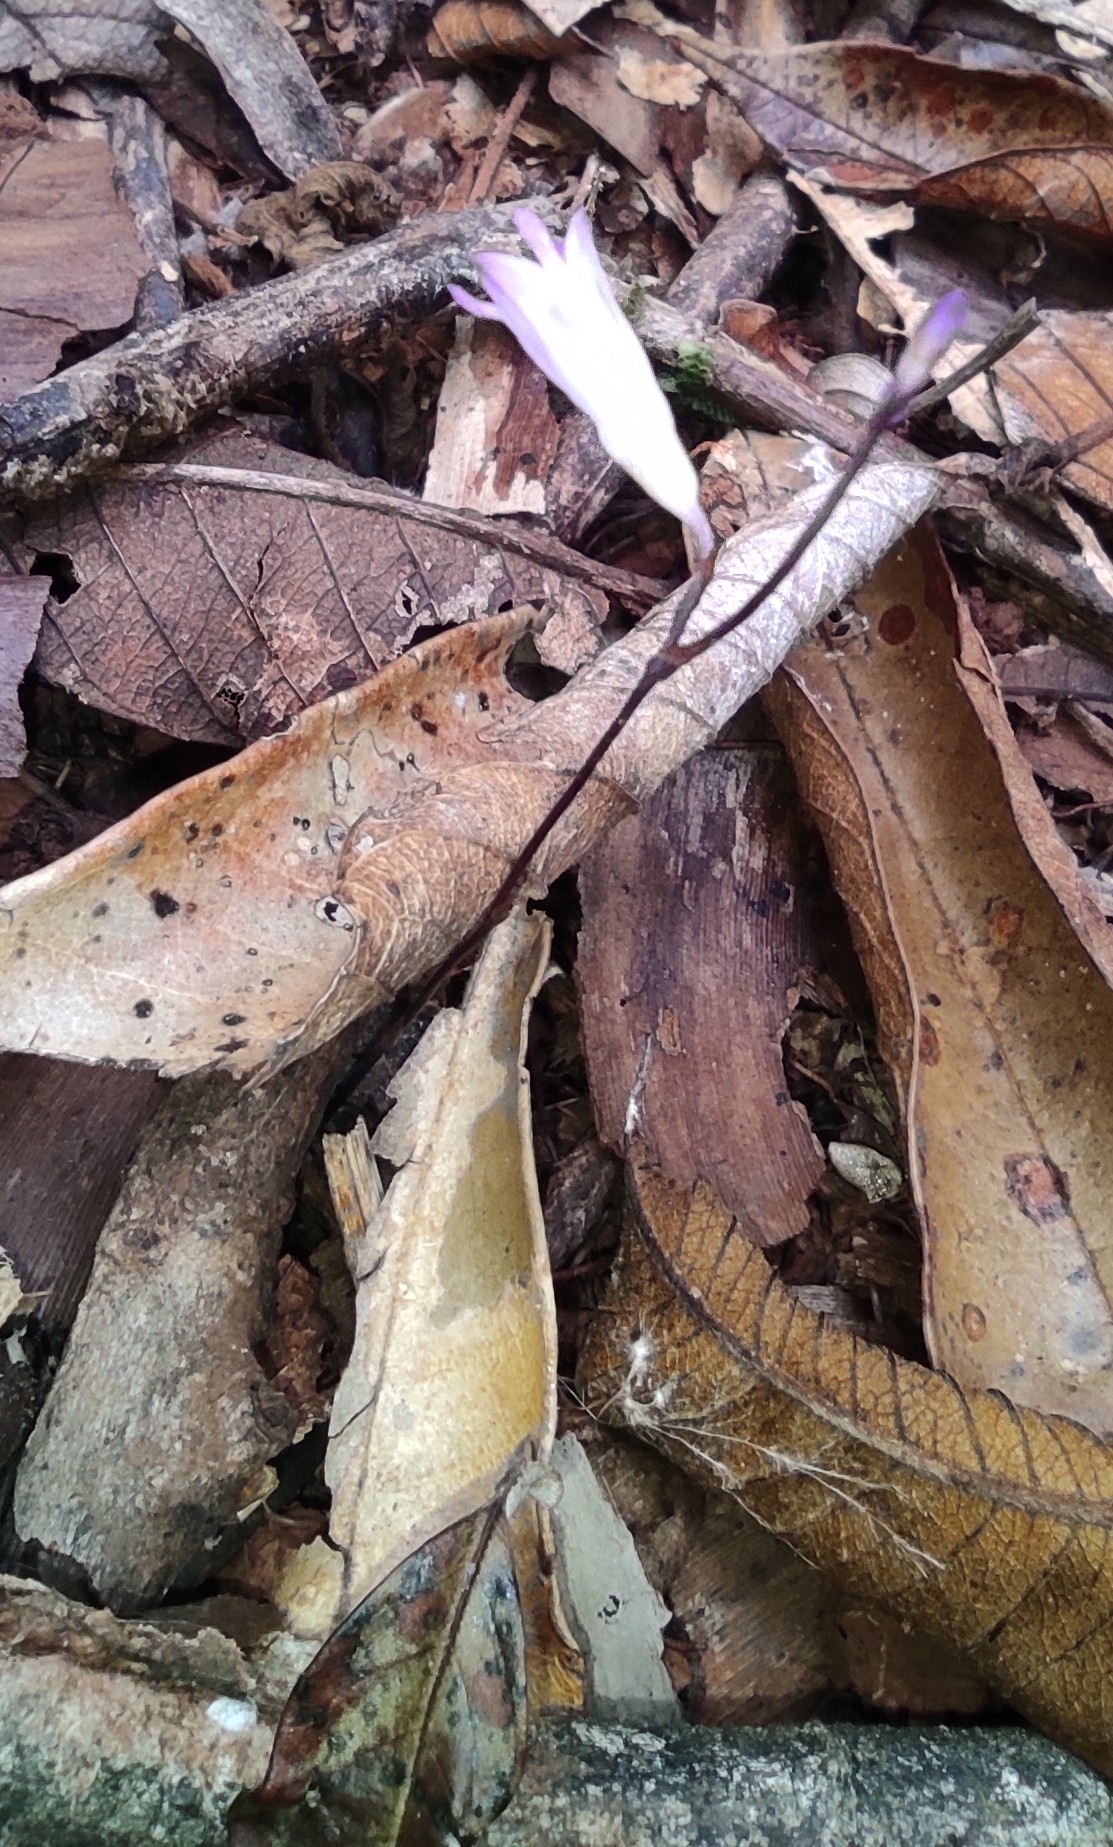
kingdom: Plantae
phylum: Tracheophyta
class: Liliopsida
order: Dioscoreales
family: Burmanniaceae
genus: Apteria
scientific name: Apteria aphylla
